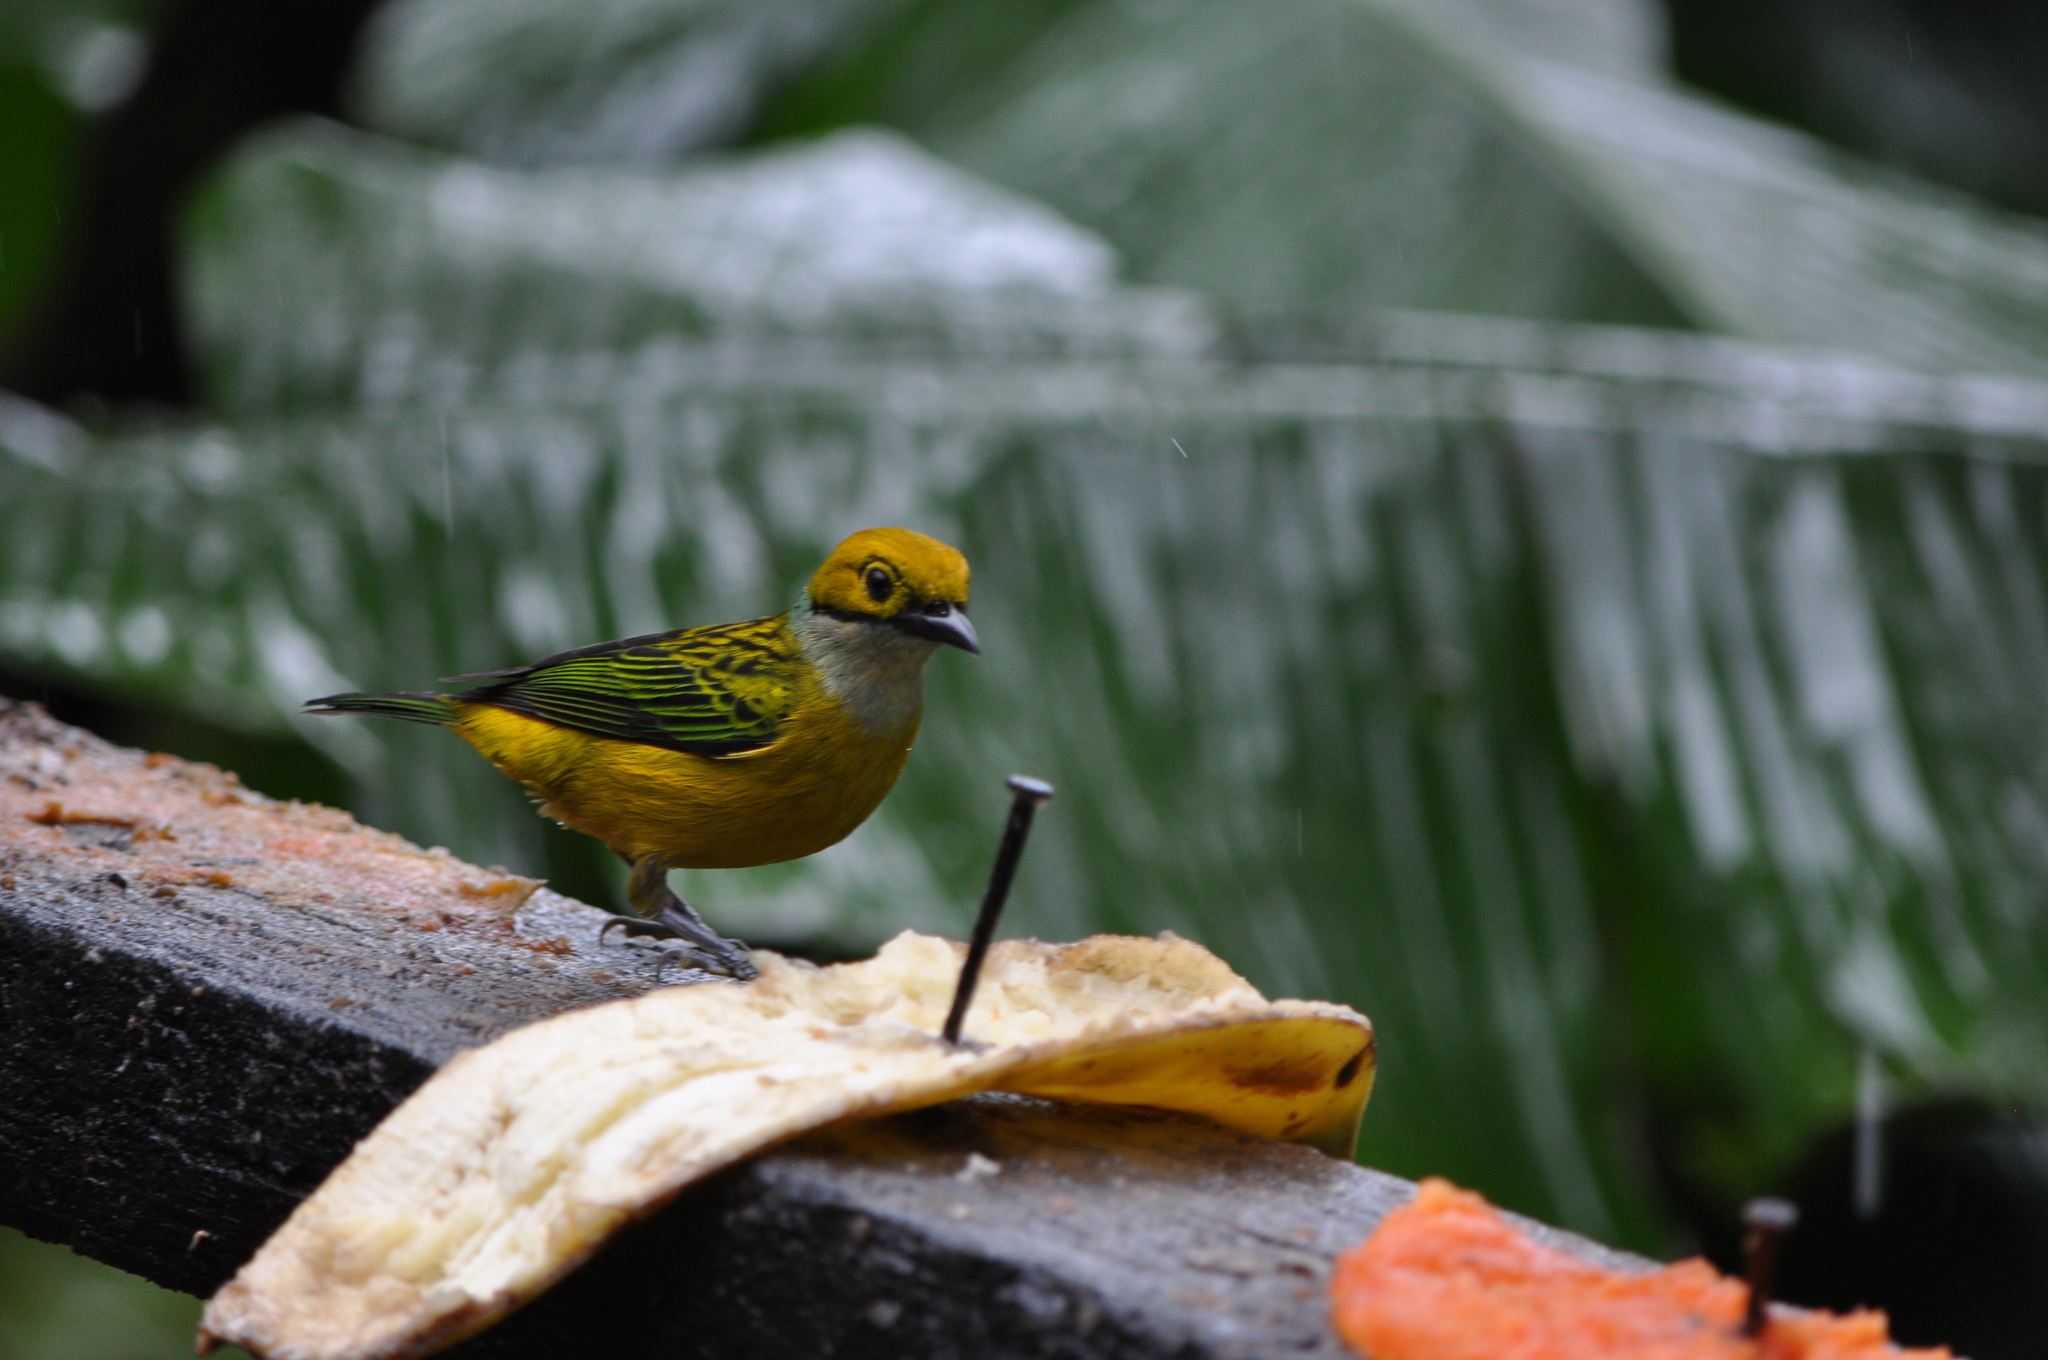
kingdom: Animalia
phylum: Chordata
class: Aves
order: Passeriformes
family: Thraupidae
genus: Tangara
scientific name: Tangara icterocephala
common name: Silver-throated tanager
